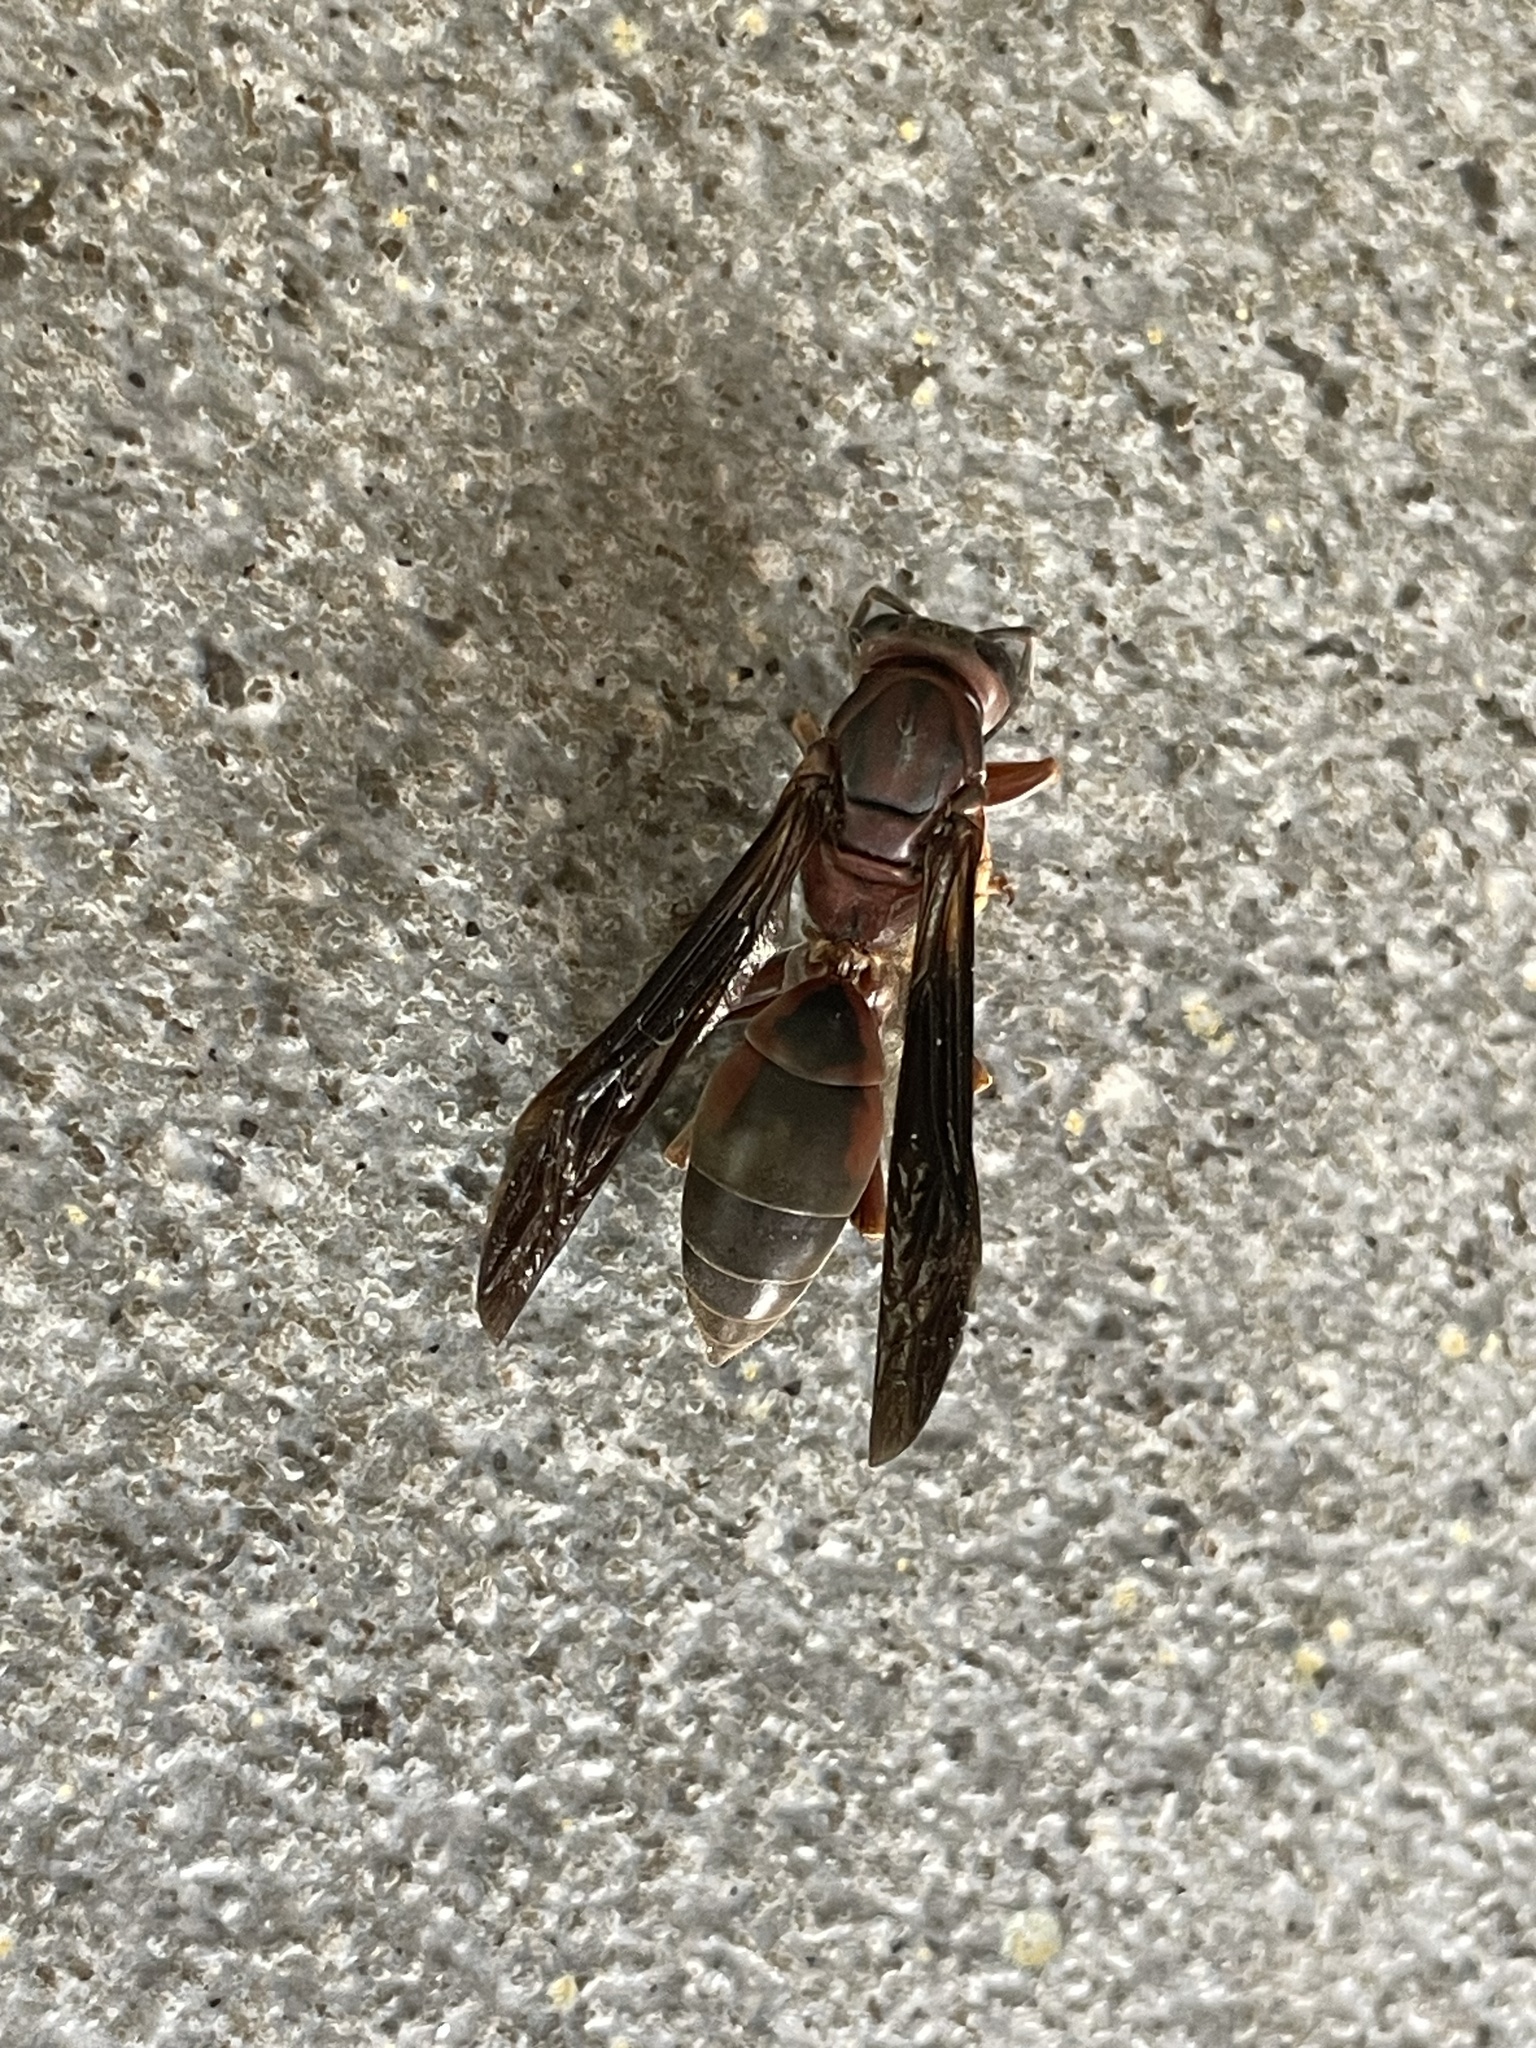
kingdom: Animalia
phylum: Arthropoda
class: Insecta
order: Hymenoptera
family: Eumenidae
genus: Polistes
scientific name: Polistes metricus
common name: Metric paper wasp
